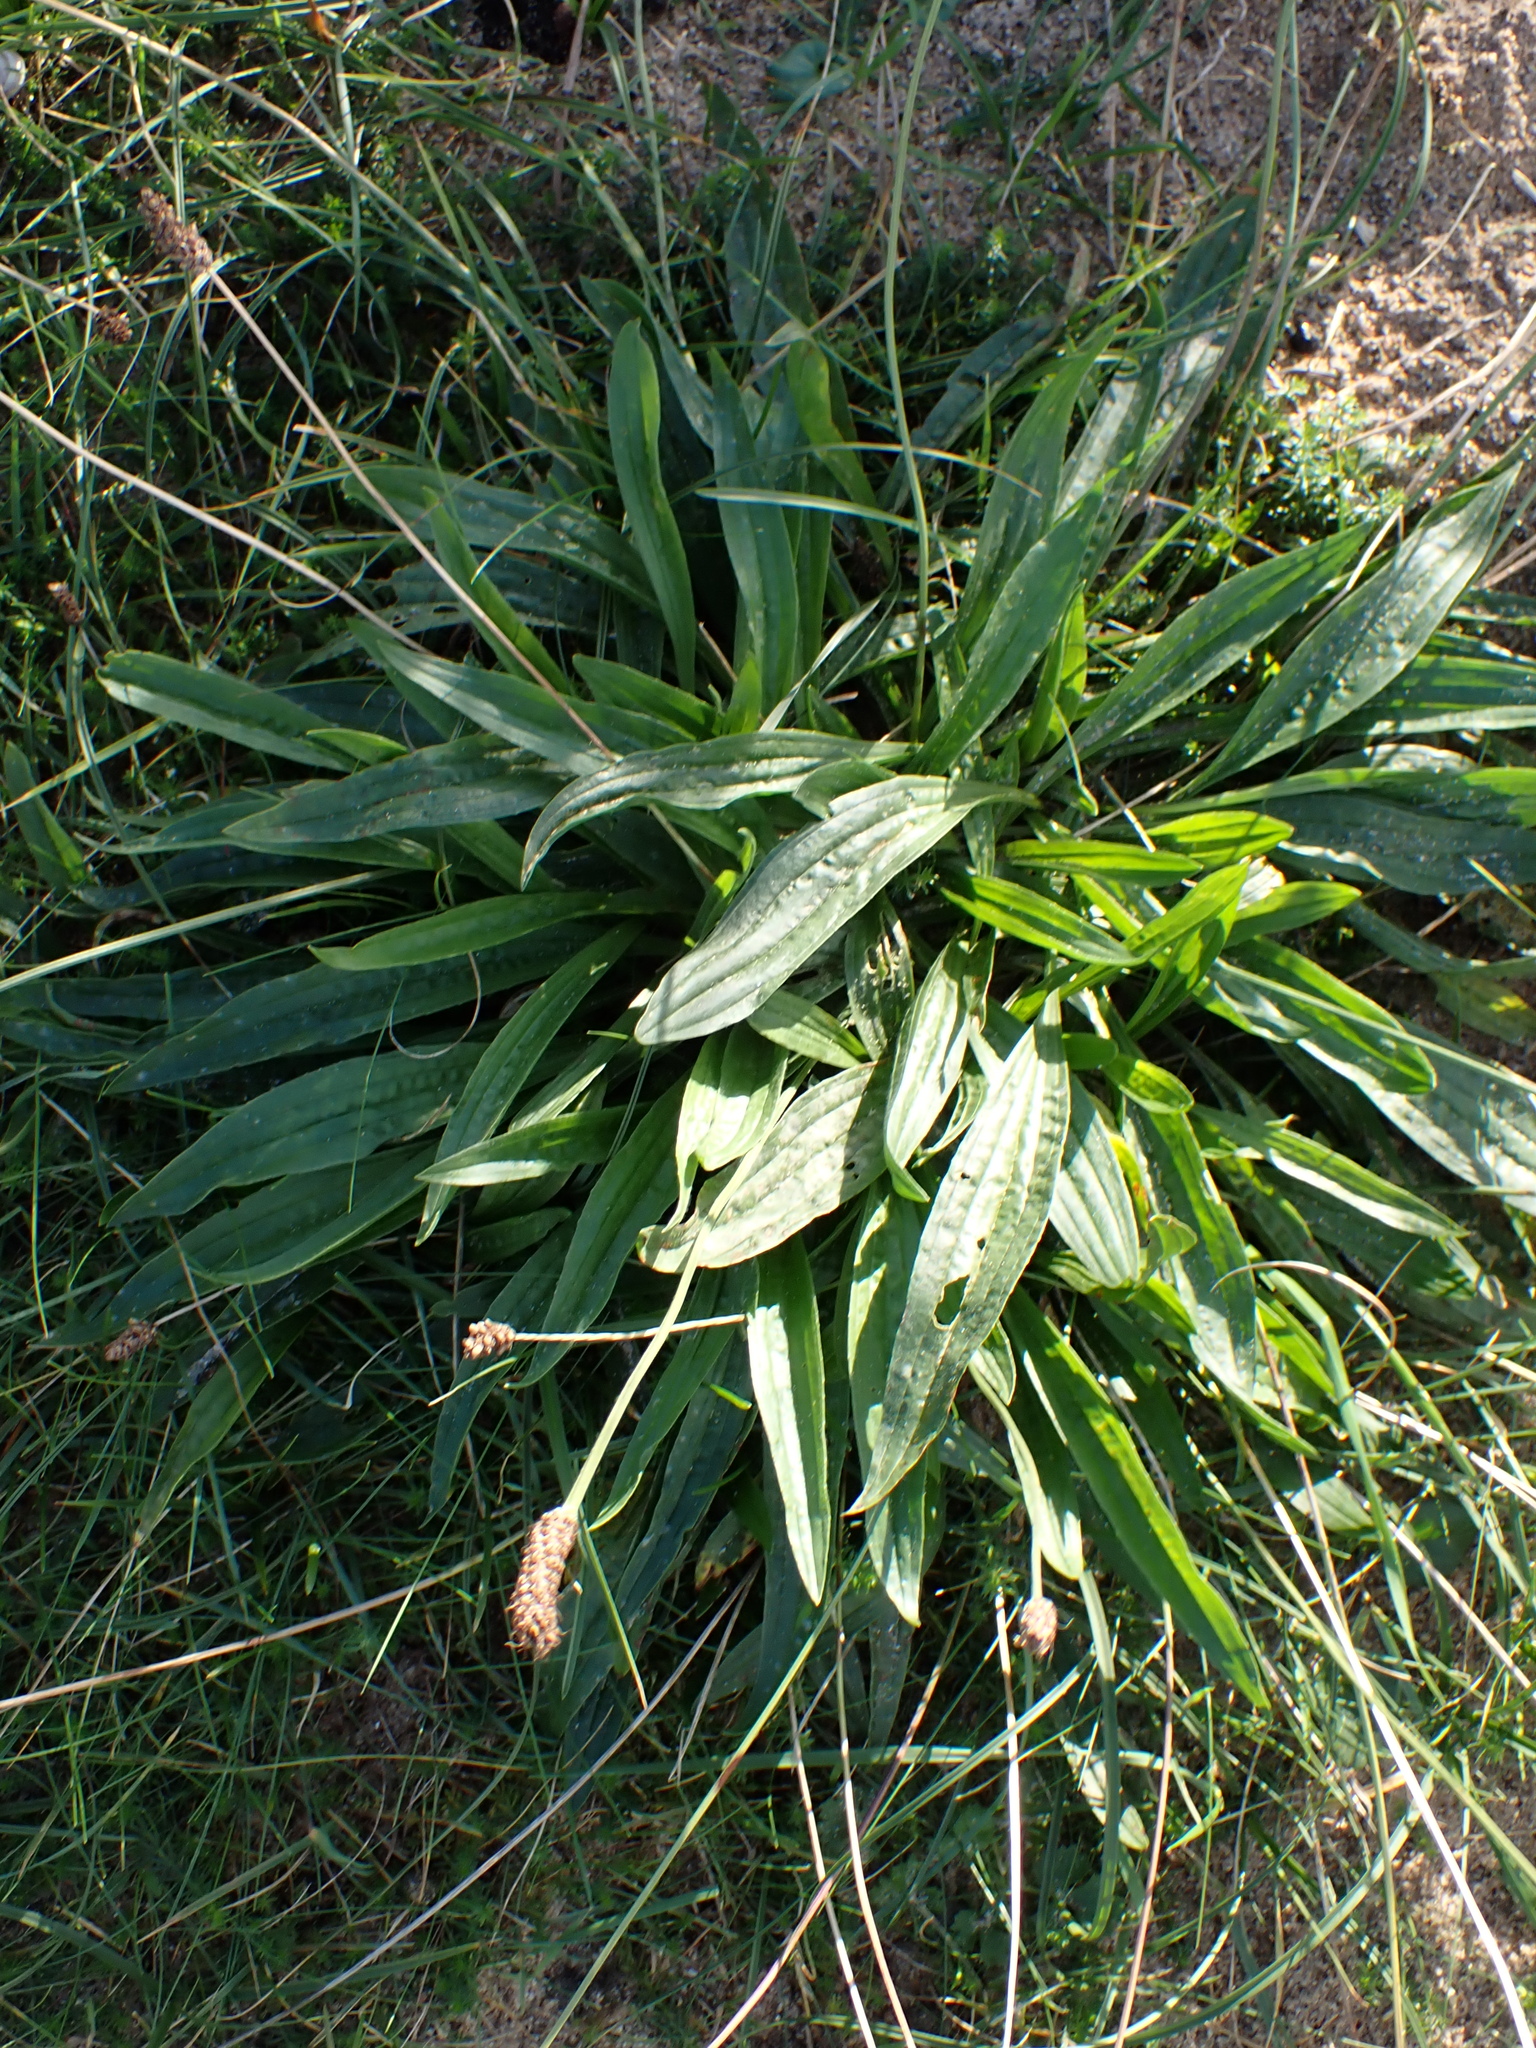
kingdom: Plantae
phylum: Tracheophyta
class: Magnoliopsida
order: Lamiales
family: Plantaginaceae
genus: Plantago
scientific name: Plantago lanceolata
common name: Ribwort plantain
